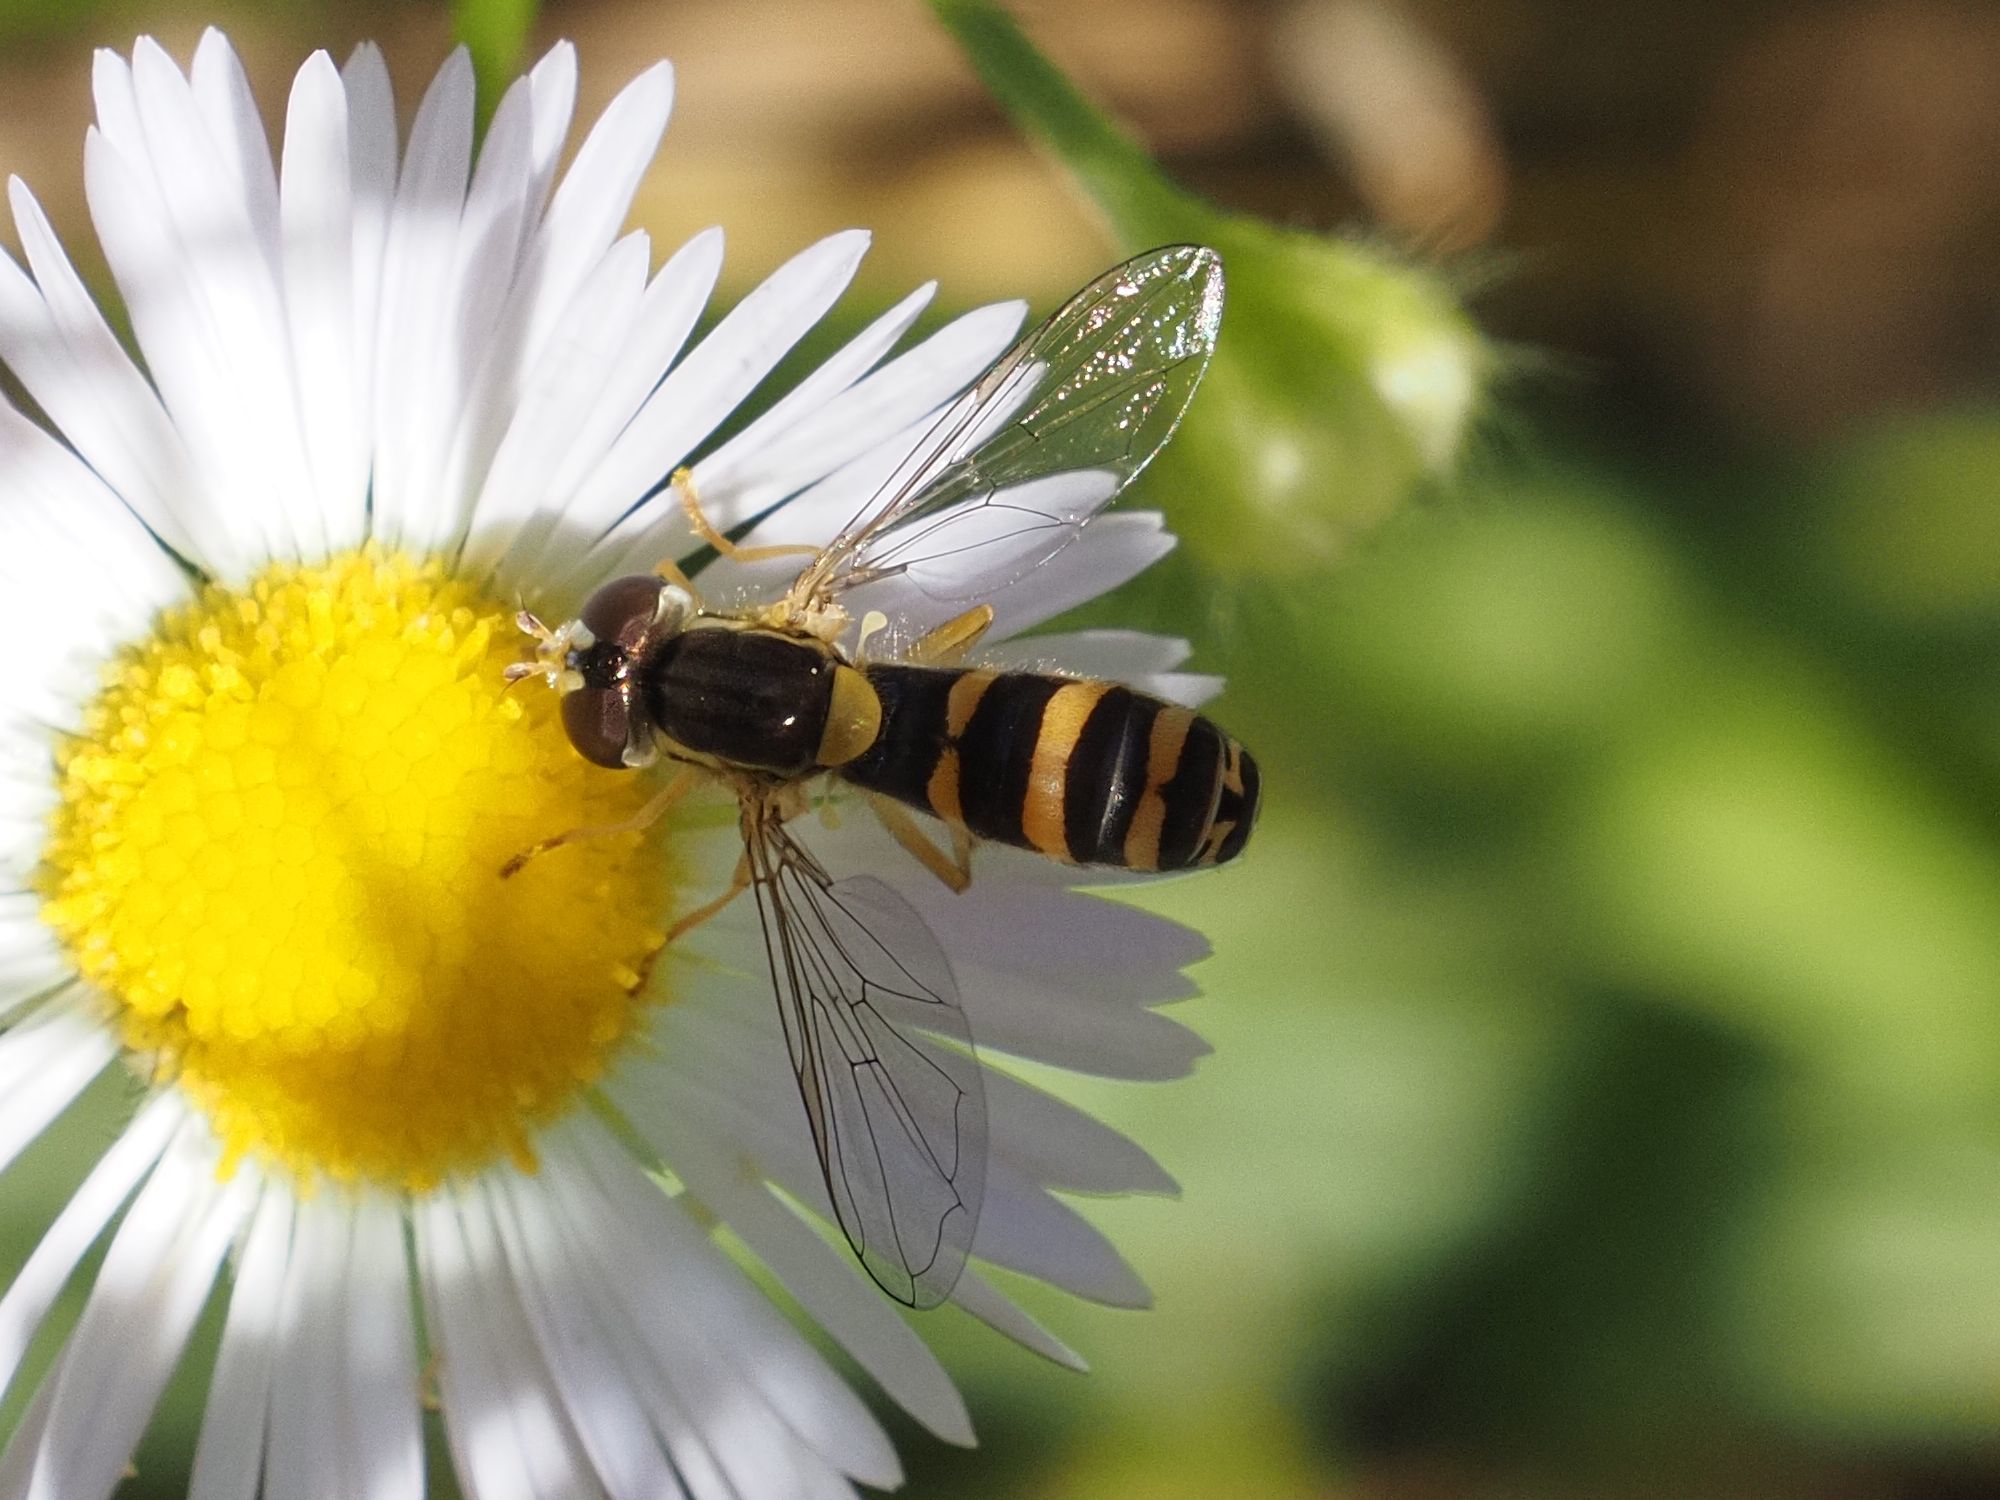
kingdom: Animalia
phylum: Arthropoda
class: Insecta
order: Diptera
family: Syrphidae
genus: Sphaerophoria
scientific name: Sphaerophoria
